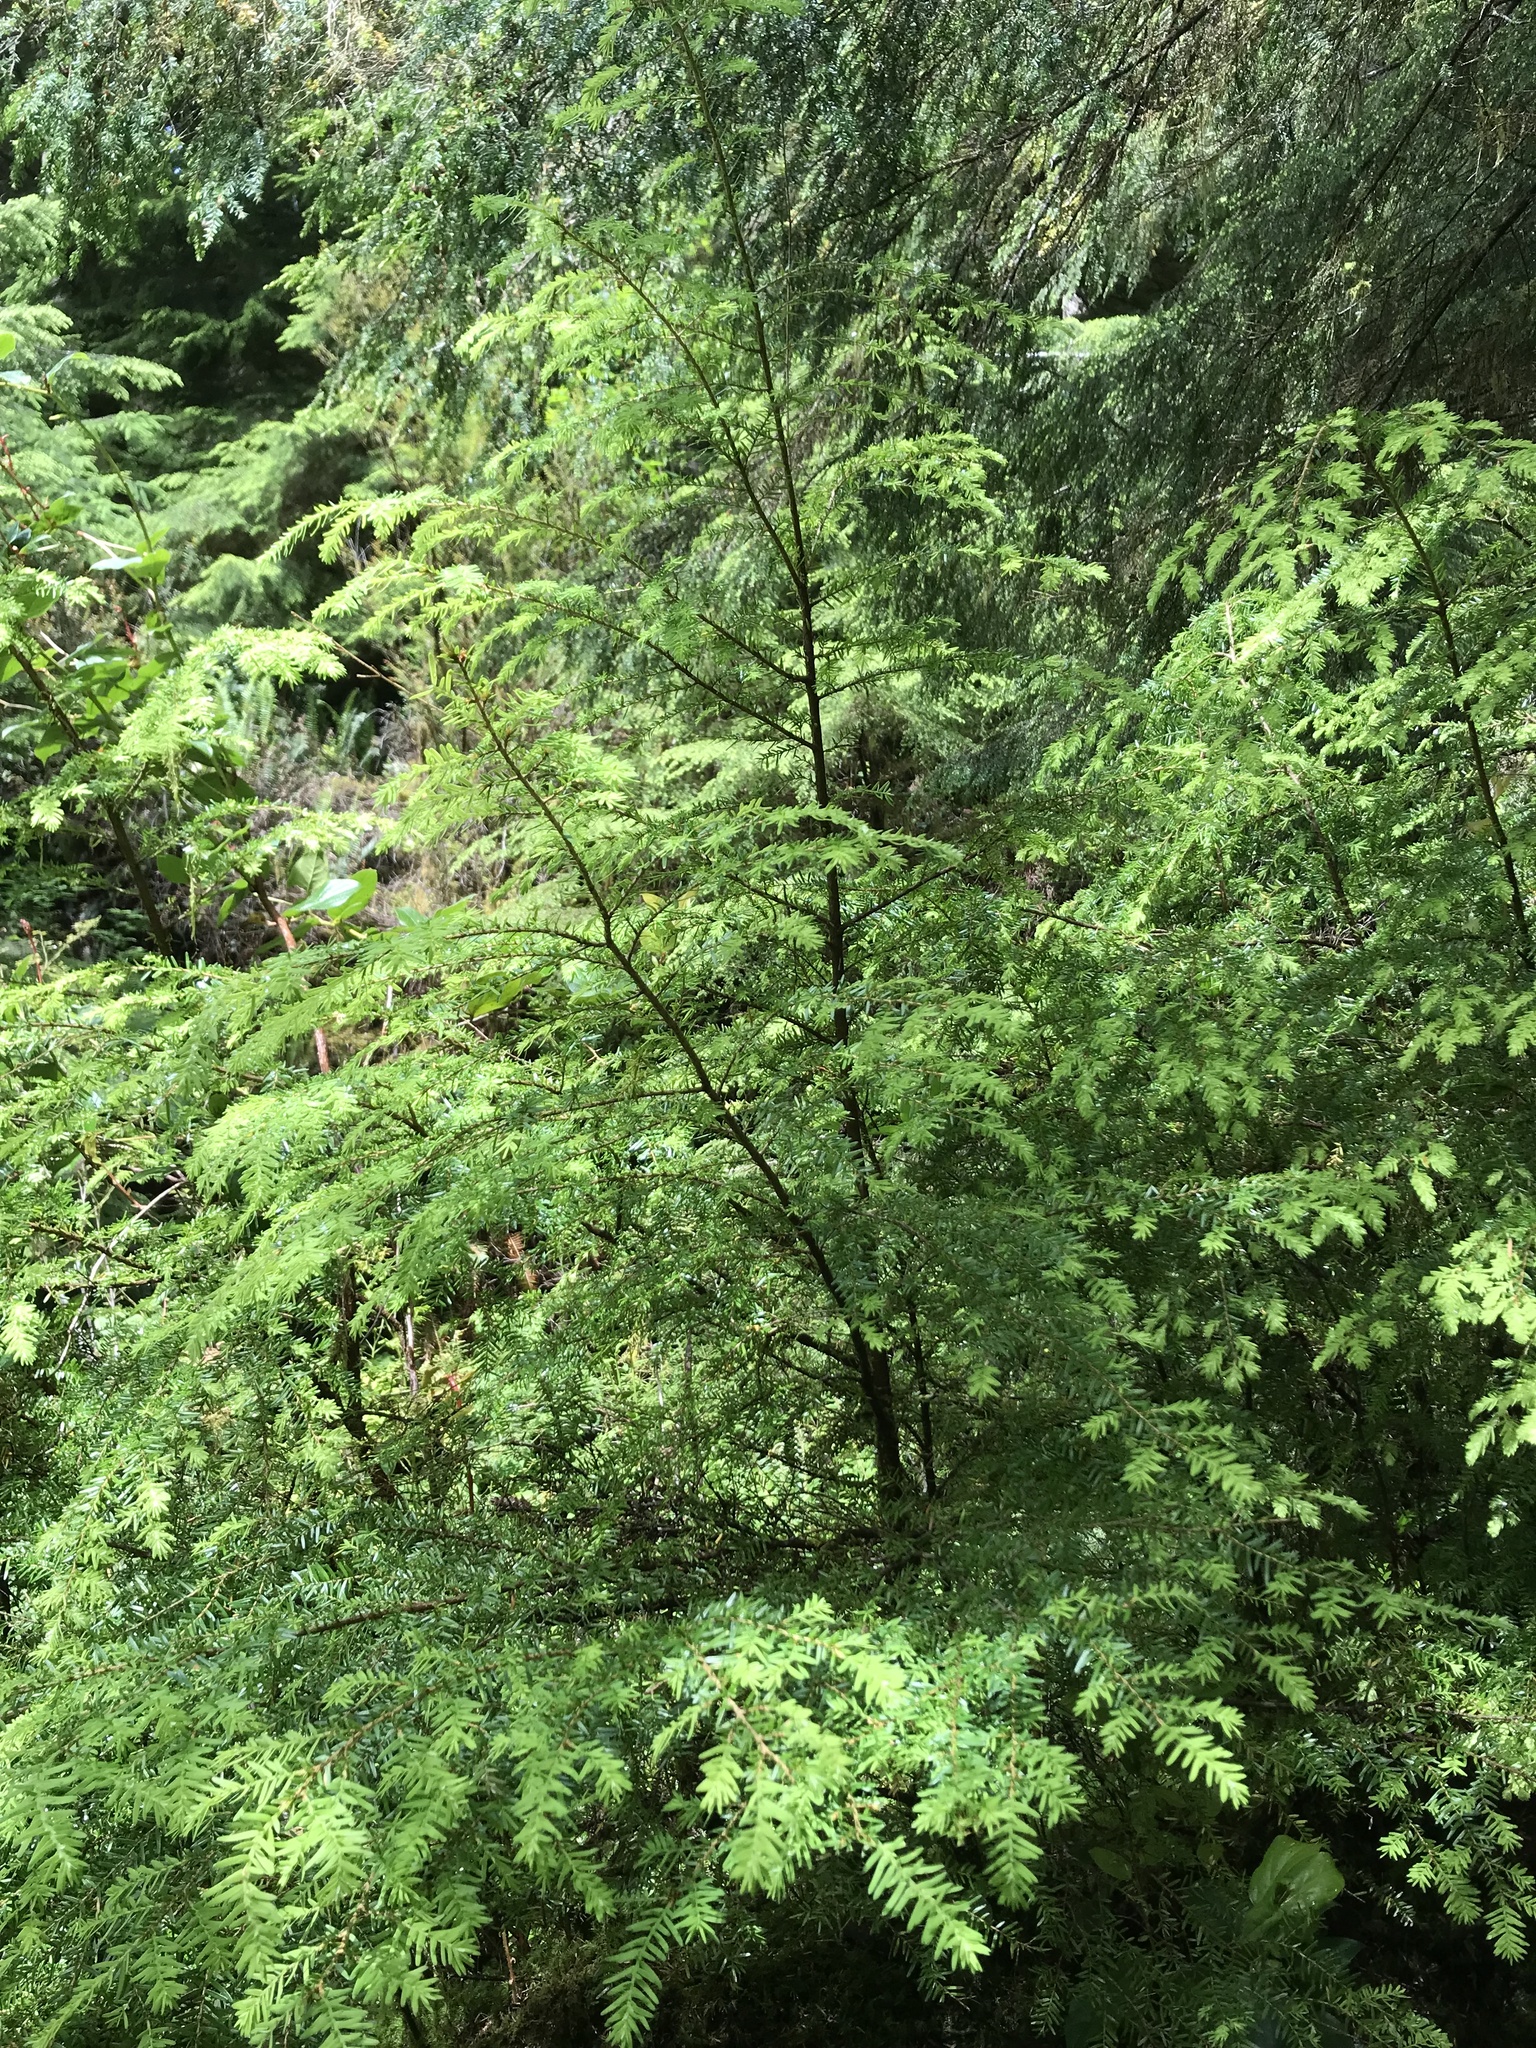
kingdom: Plantae
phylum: Tracheophyta
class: Pinopsida
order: Pinales
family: Pinaceae
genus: Tsuga
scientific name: Tsuga heterophylla
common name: Western hemlock
